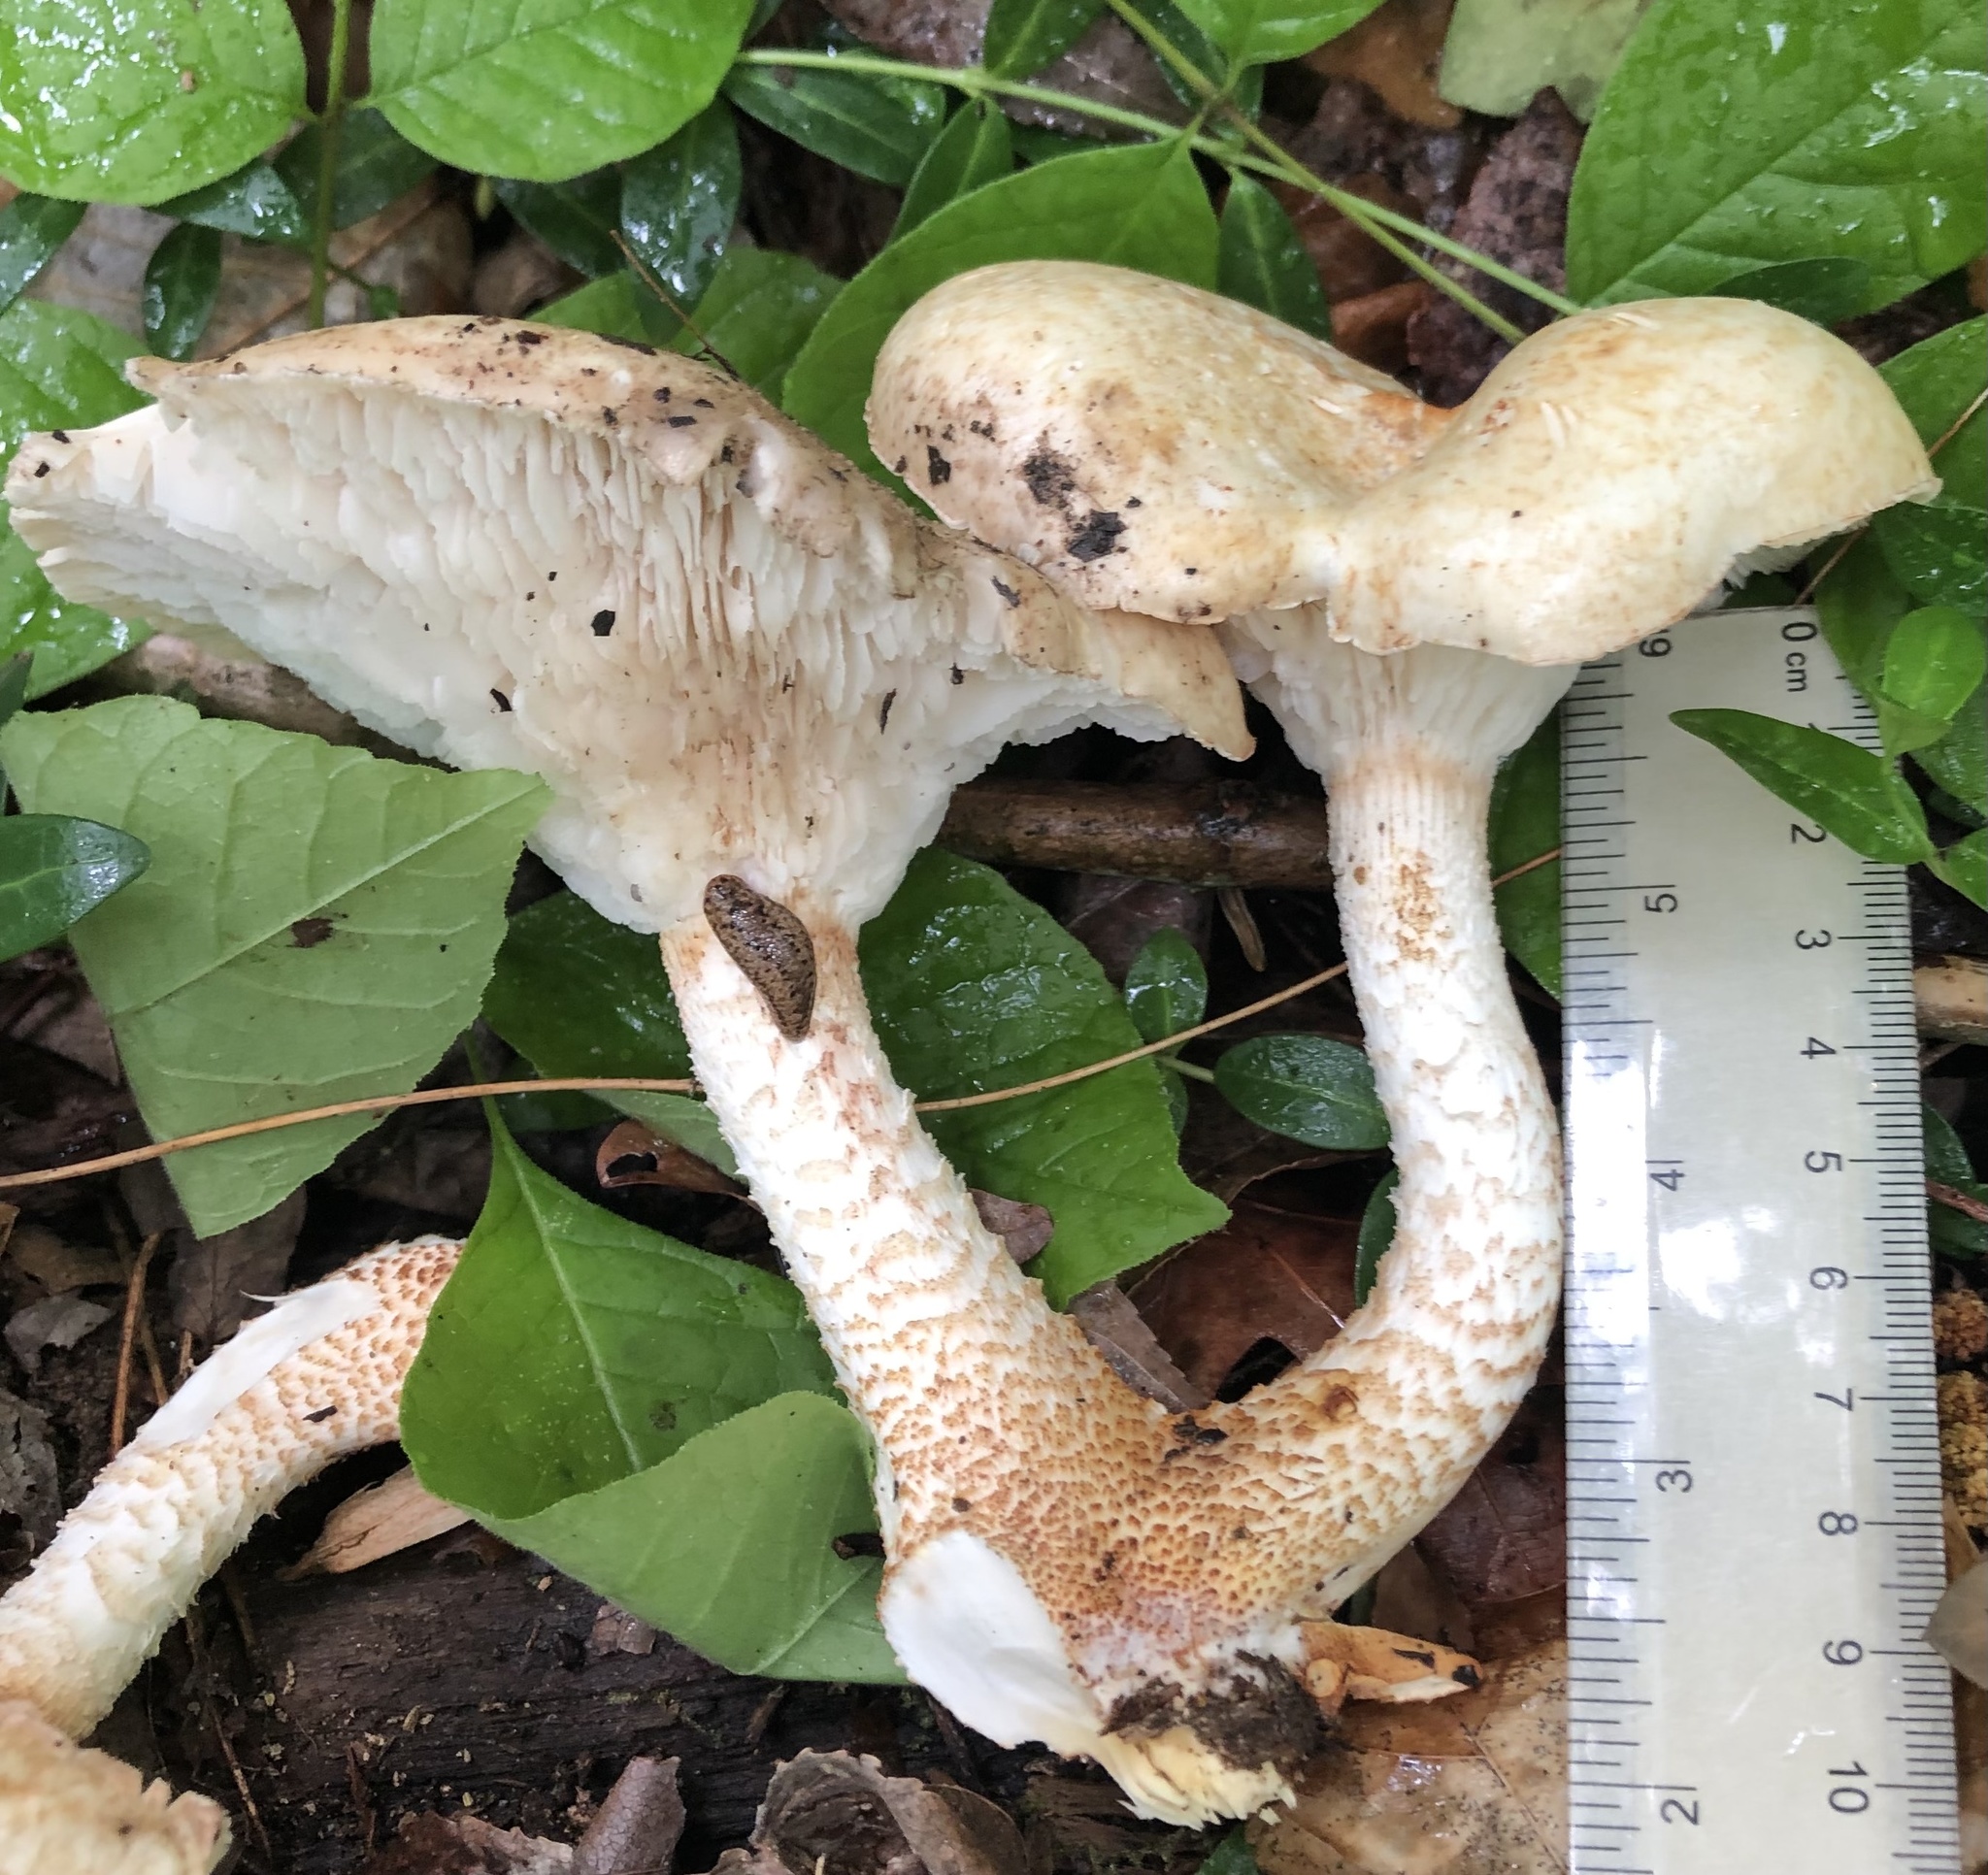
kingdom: Fungi
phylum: Basidiomycota
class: Agaricomycetes
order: Gloeophyllales
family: Gloeophyllaceae
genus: Neolentinus
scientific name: Neolentinus lepideus
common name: Scaly sawgill
